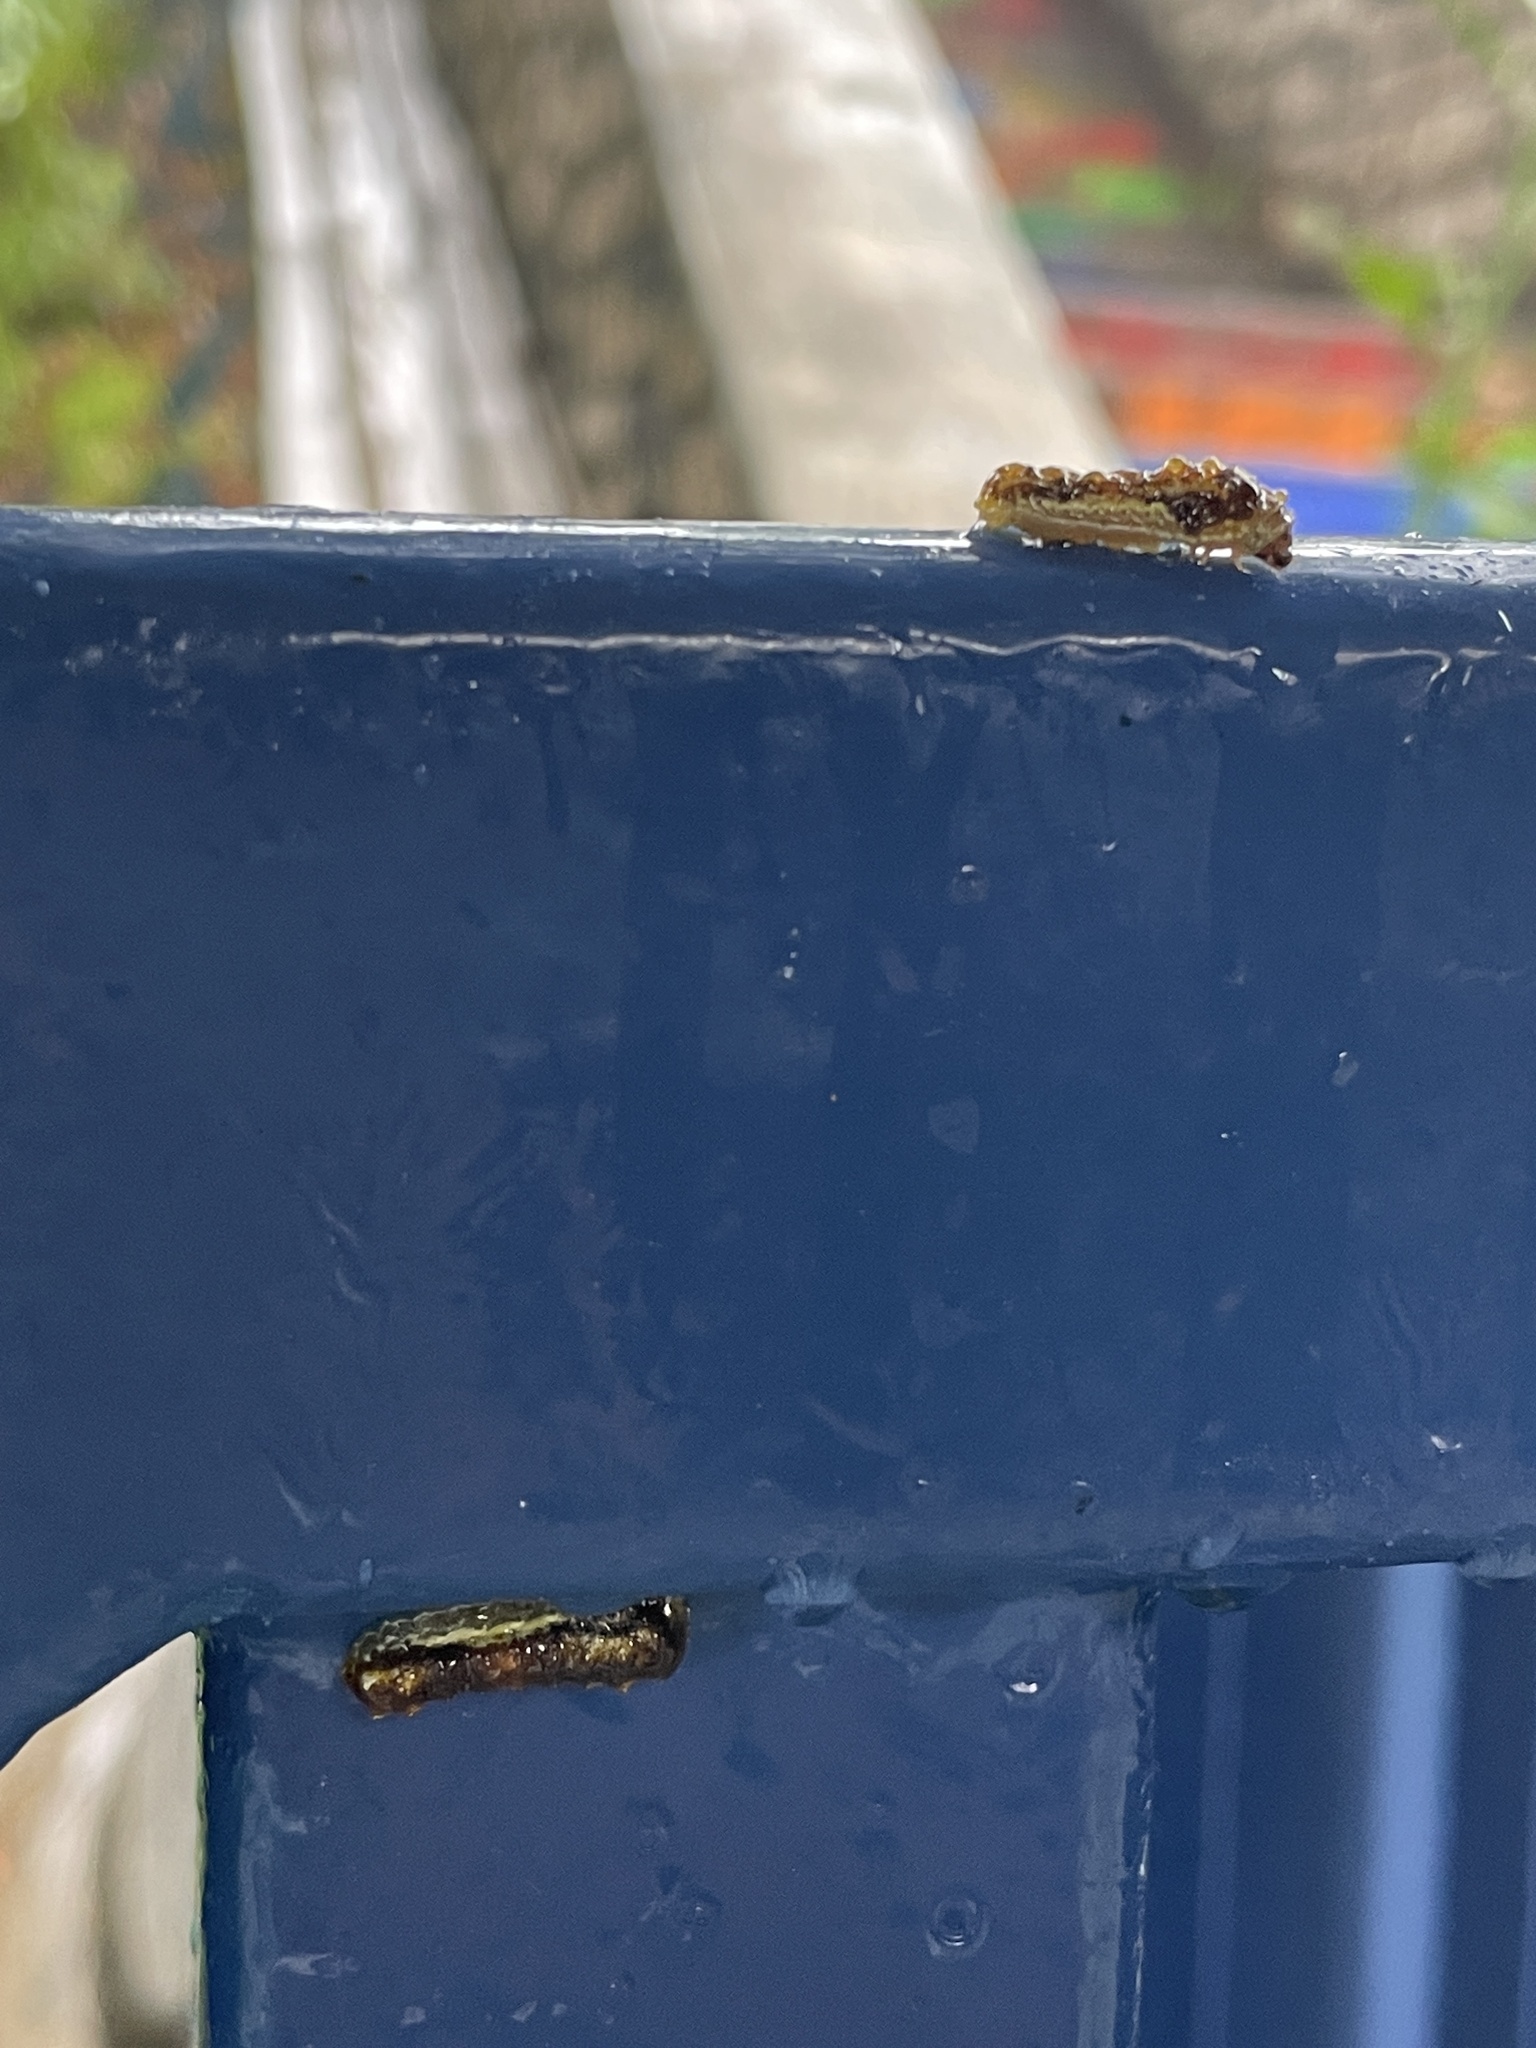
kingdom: Animalia
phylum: Arthropoda
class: Insecta
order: Lepidoptera
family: Phaudidae
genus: Phauda
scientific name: Phauda flammans
